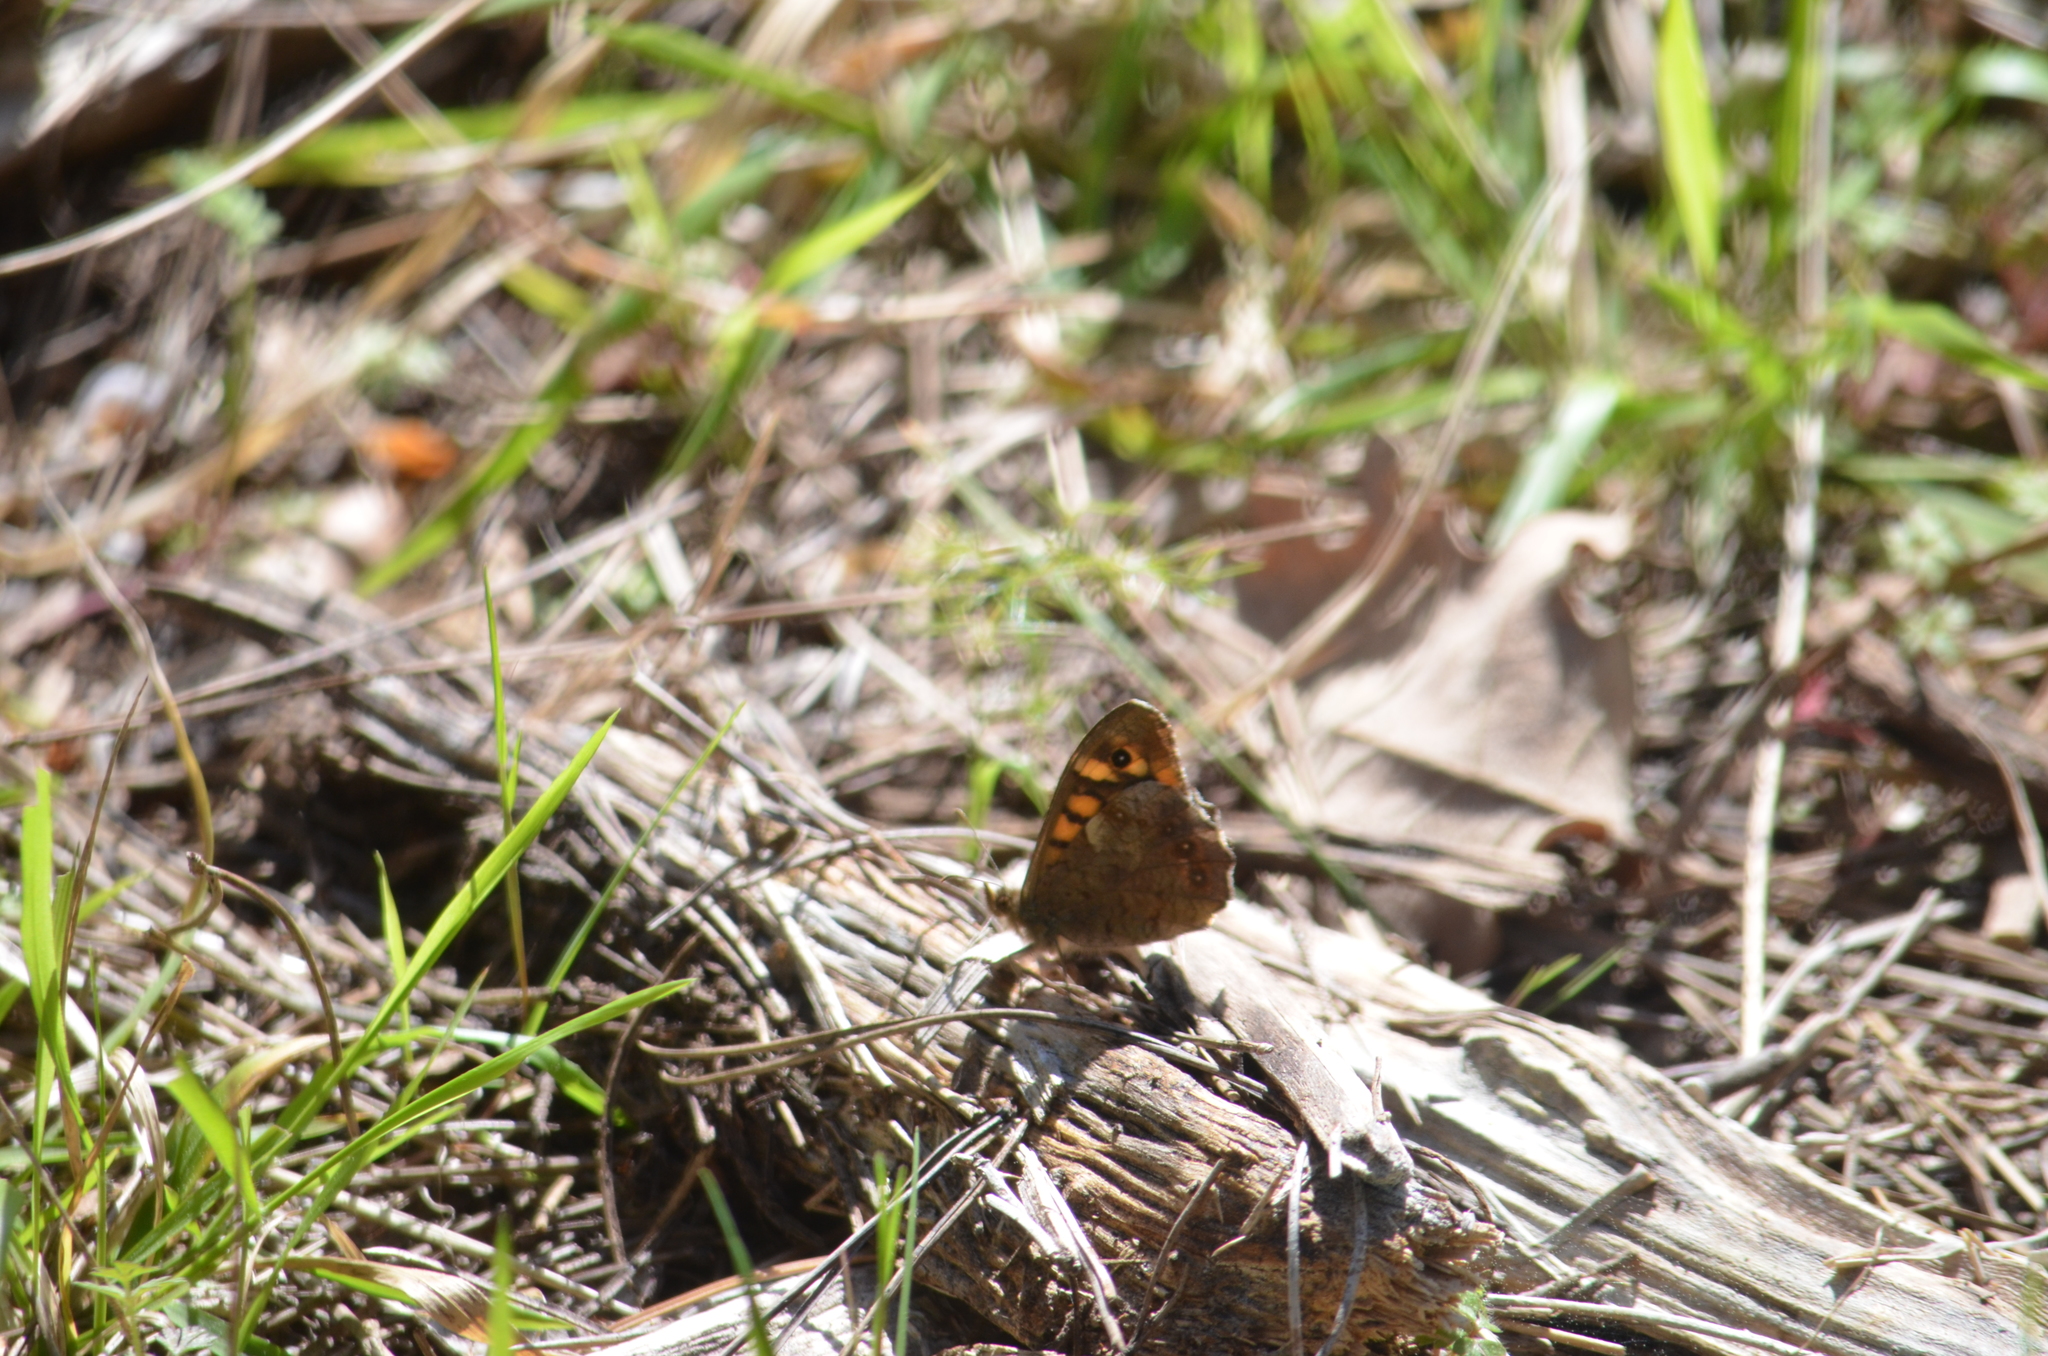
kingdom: Animalia
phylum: Arthropoda
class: Insecta
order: Lepidoptera
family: Nymphalidae
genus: Pararge
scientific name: Pararge aegeria
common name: Speckled wood
